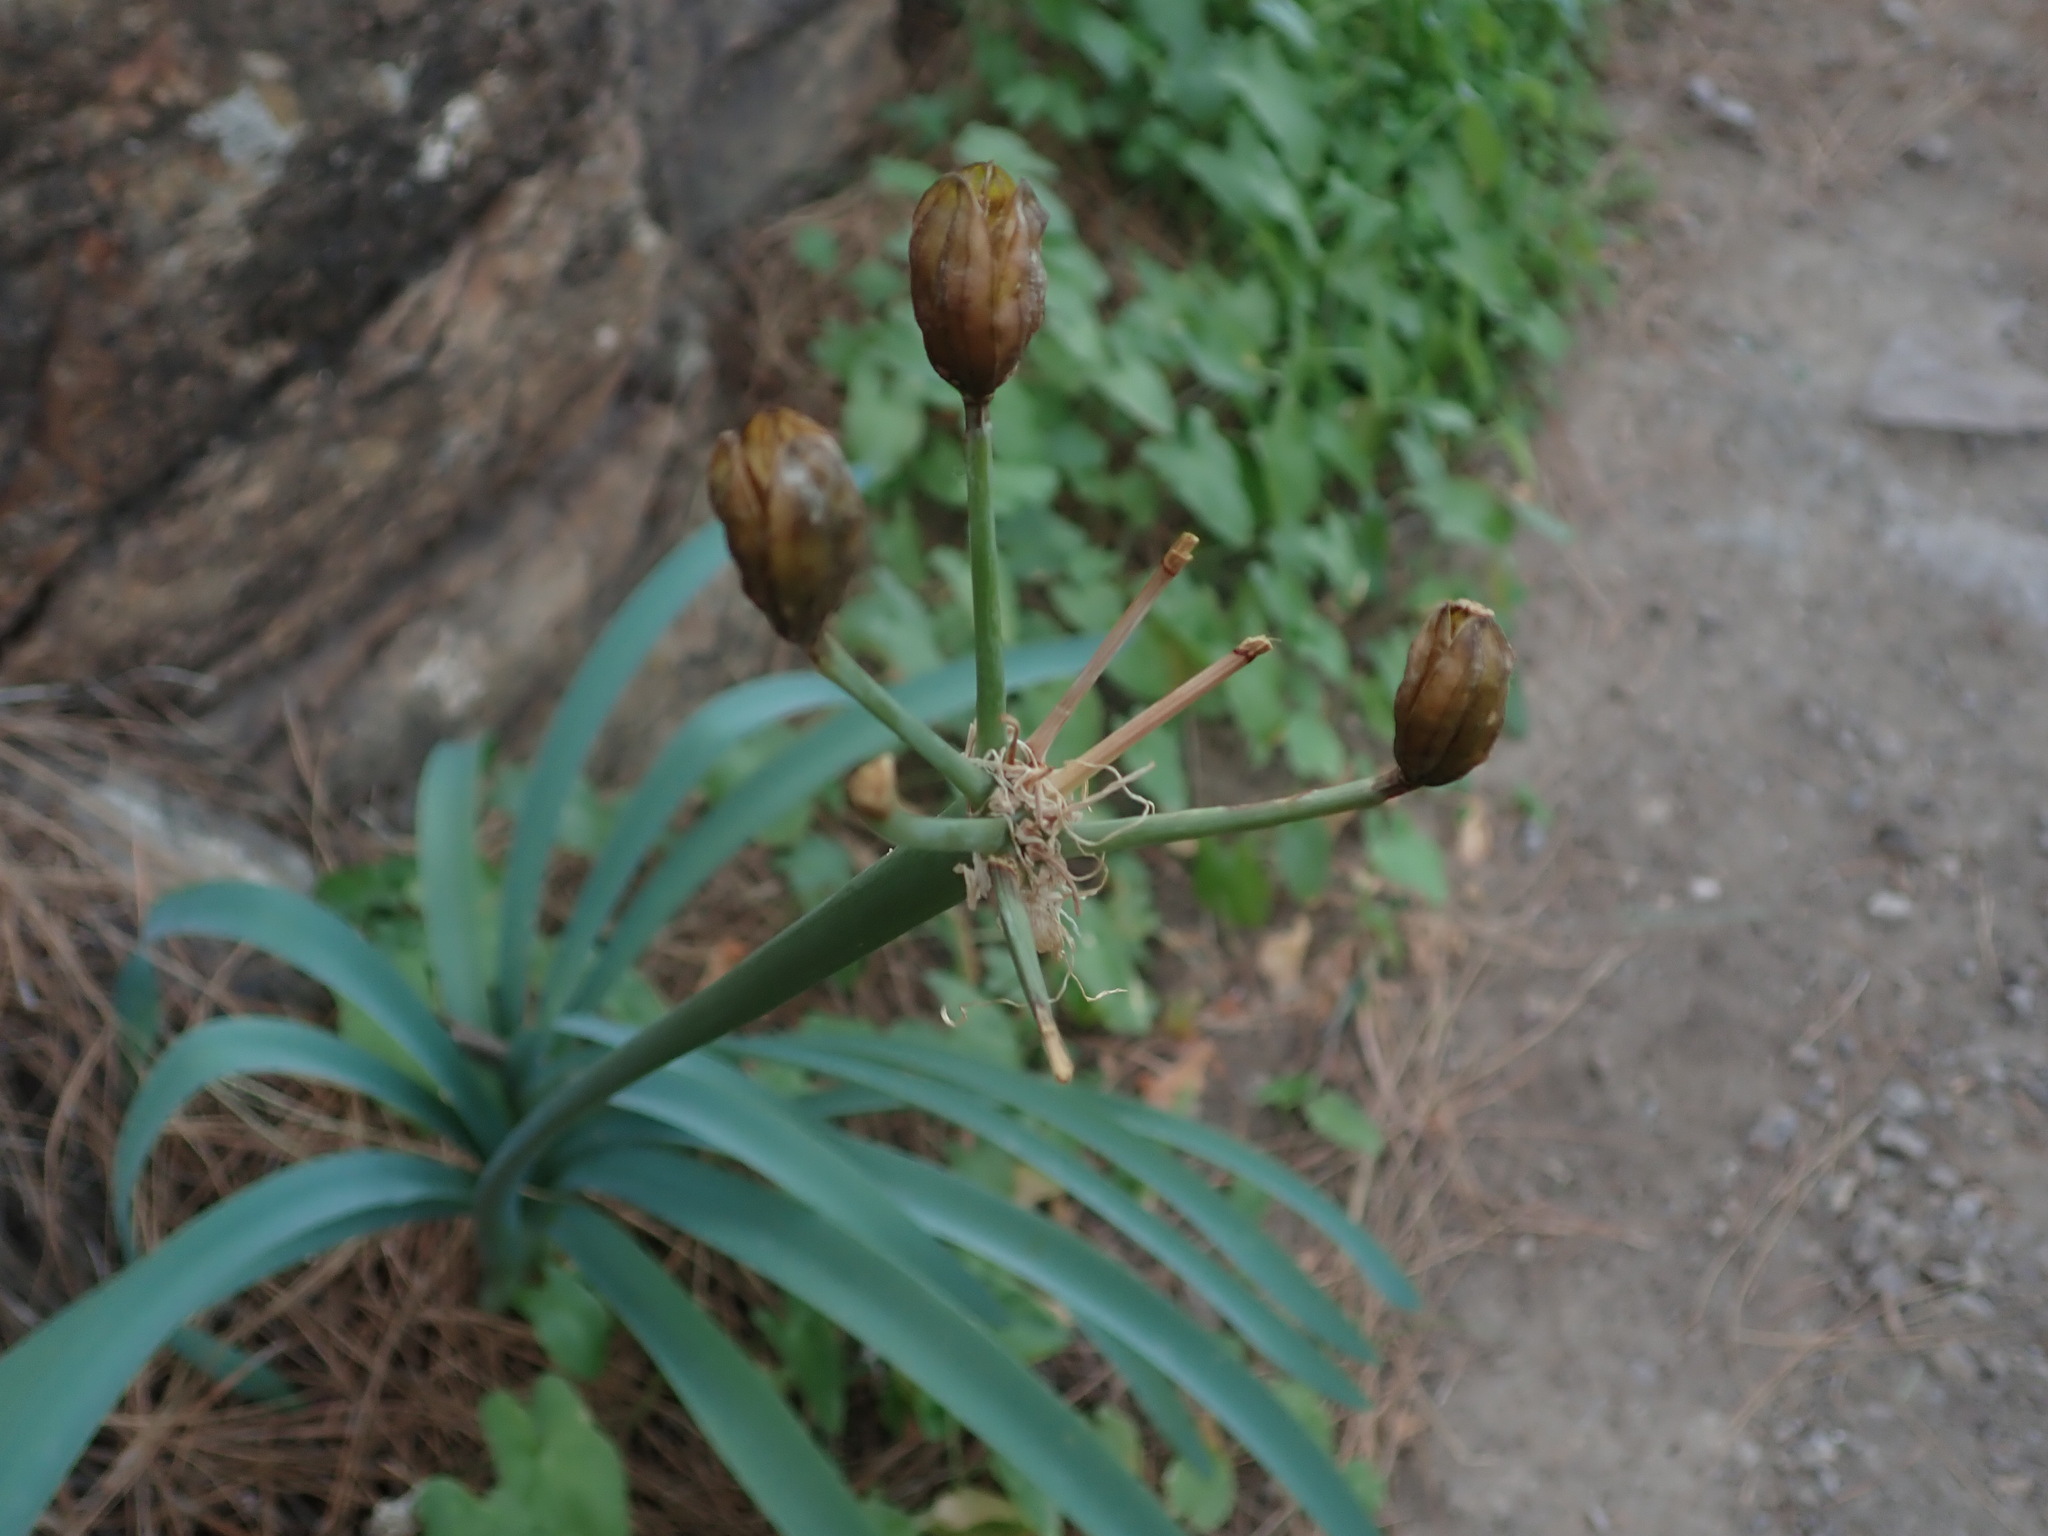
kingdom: Plantae
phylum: Tracheophyta
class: Liliopsida
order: Asparagales
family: Amaryllidaceae
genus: Pancratium
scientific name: Pancratium canariense
